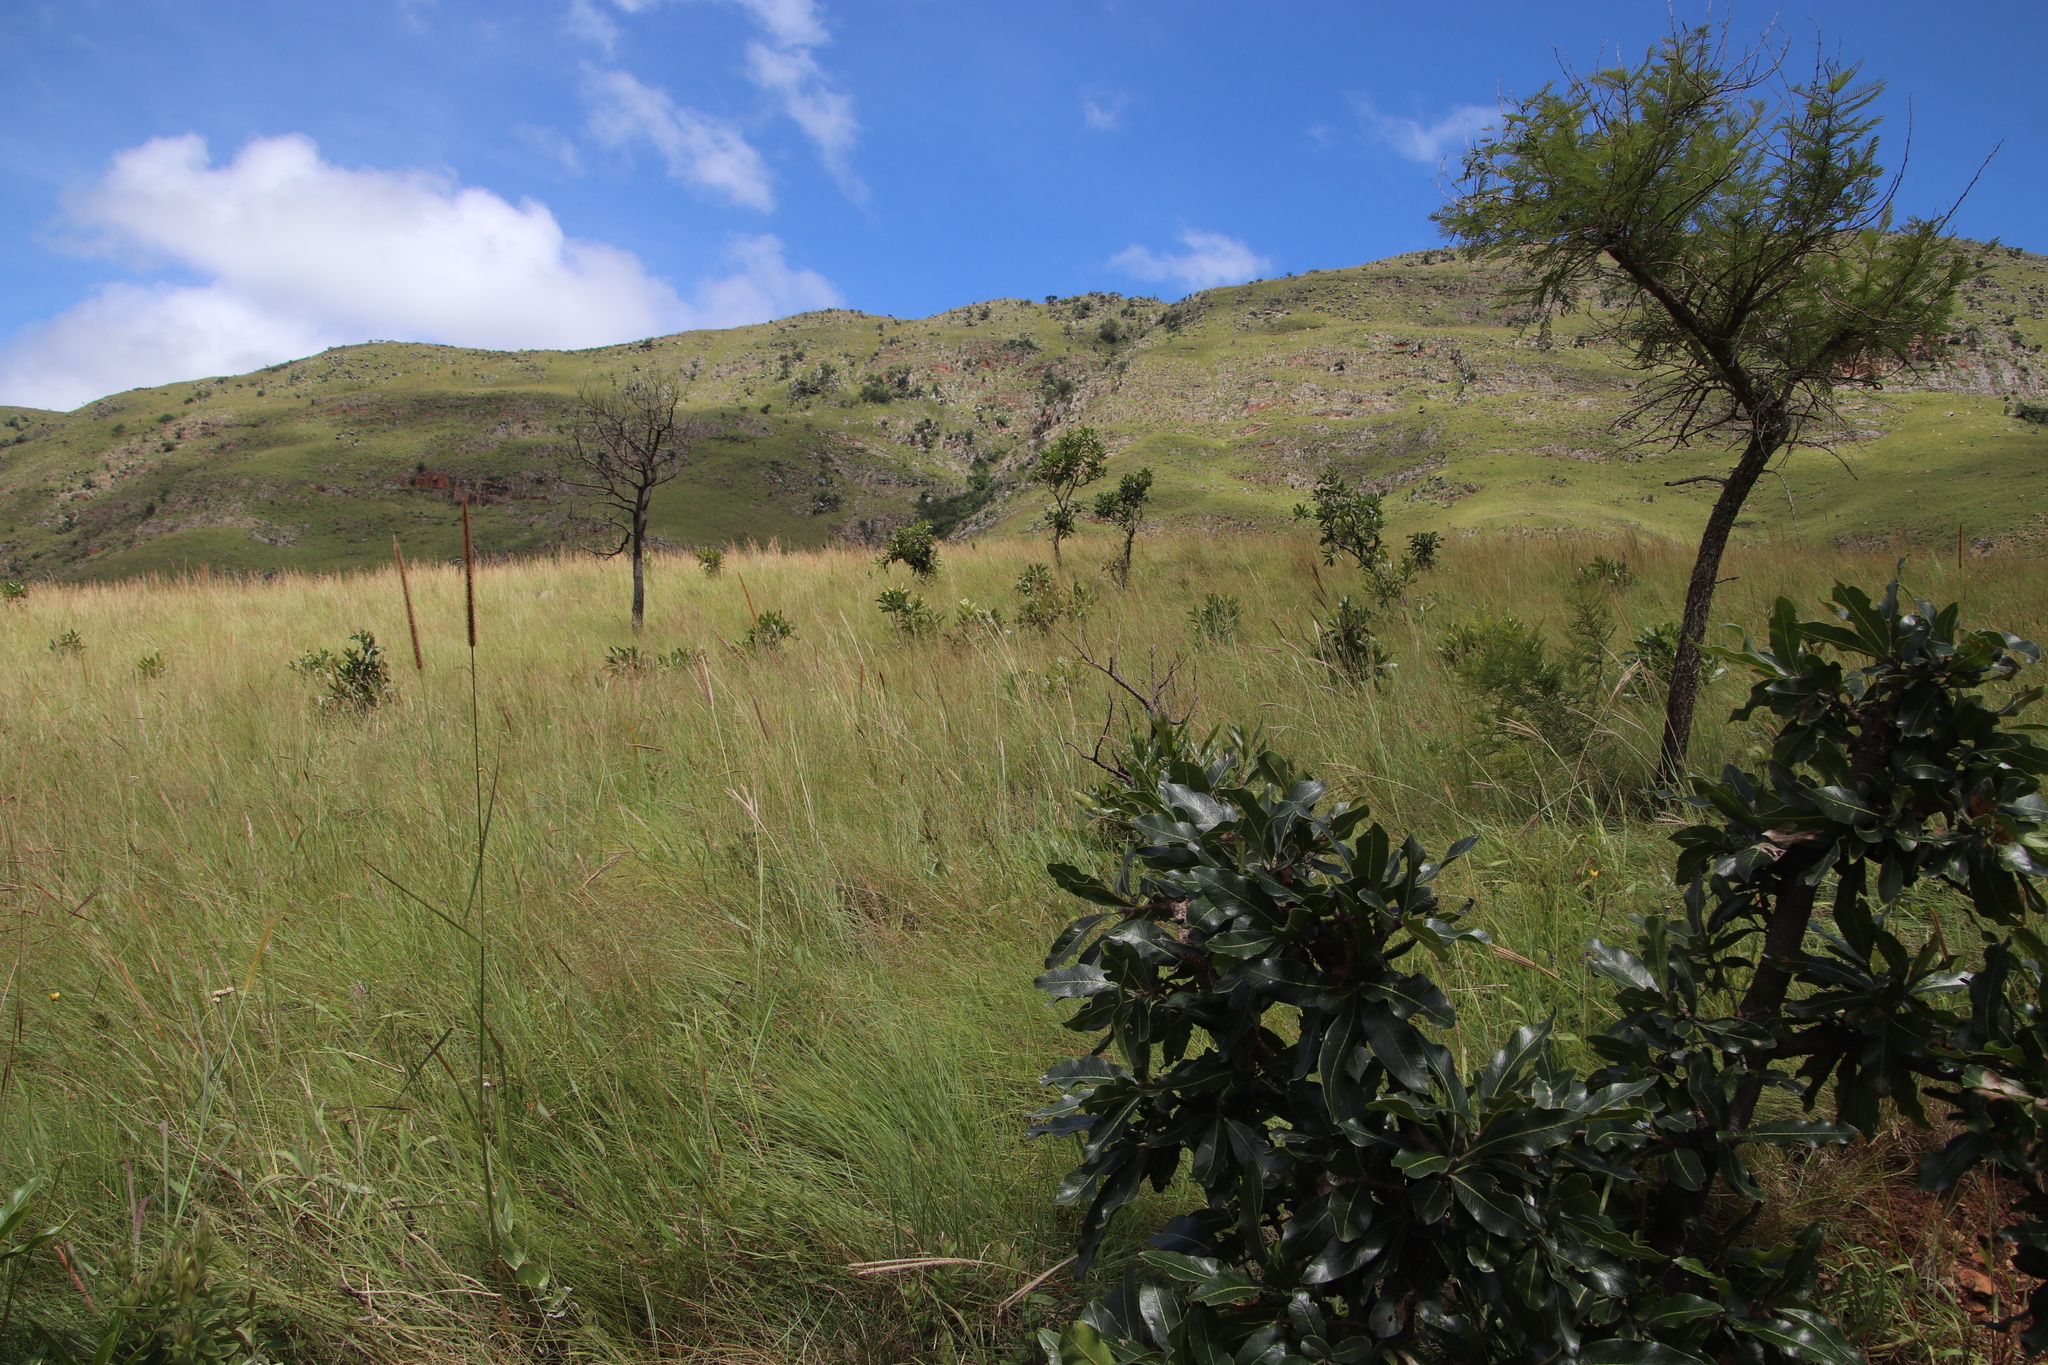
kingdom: Plantae
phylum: Tracheophyta
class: Magnoliopsida
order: Proteales
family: Proteaceae
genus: Faurea
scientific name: Faurea rochetiana
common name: Broad-leaved beech
